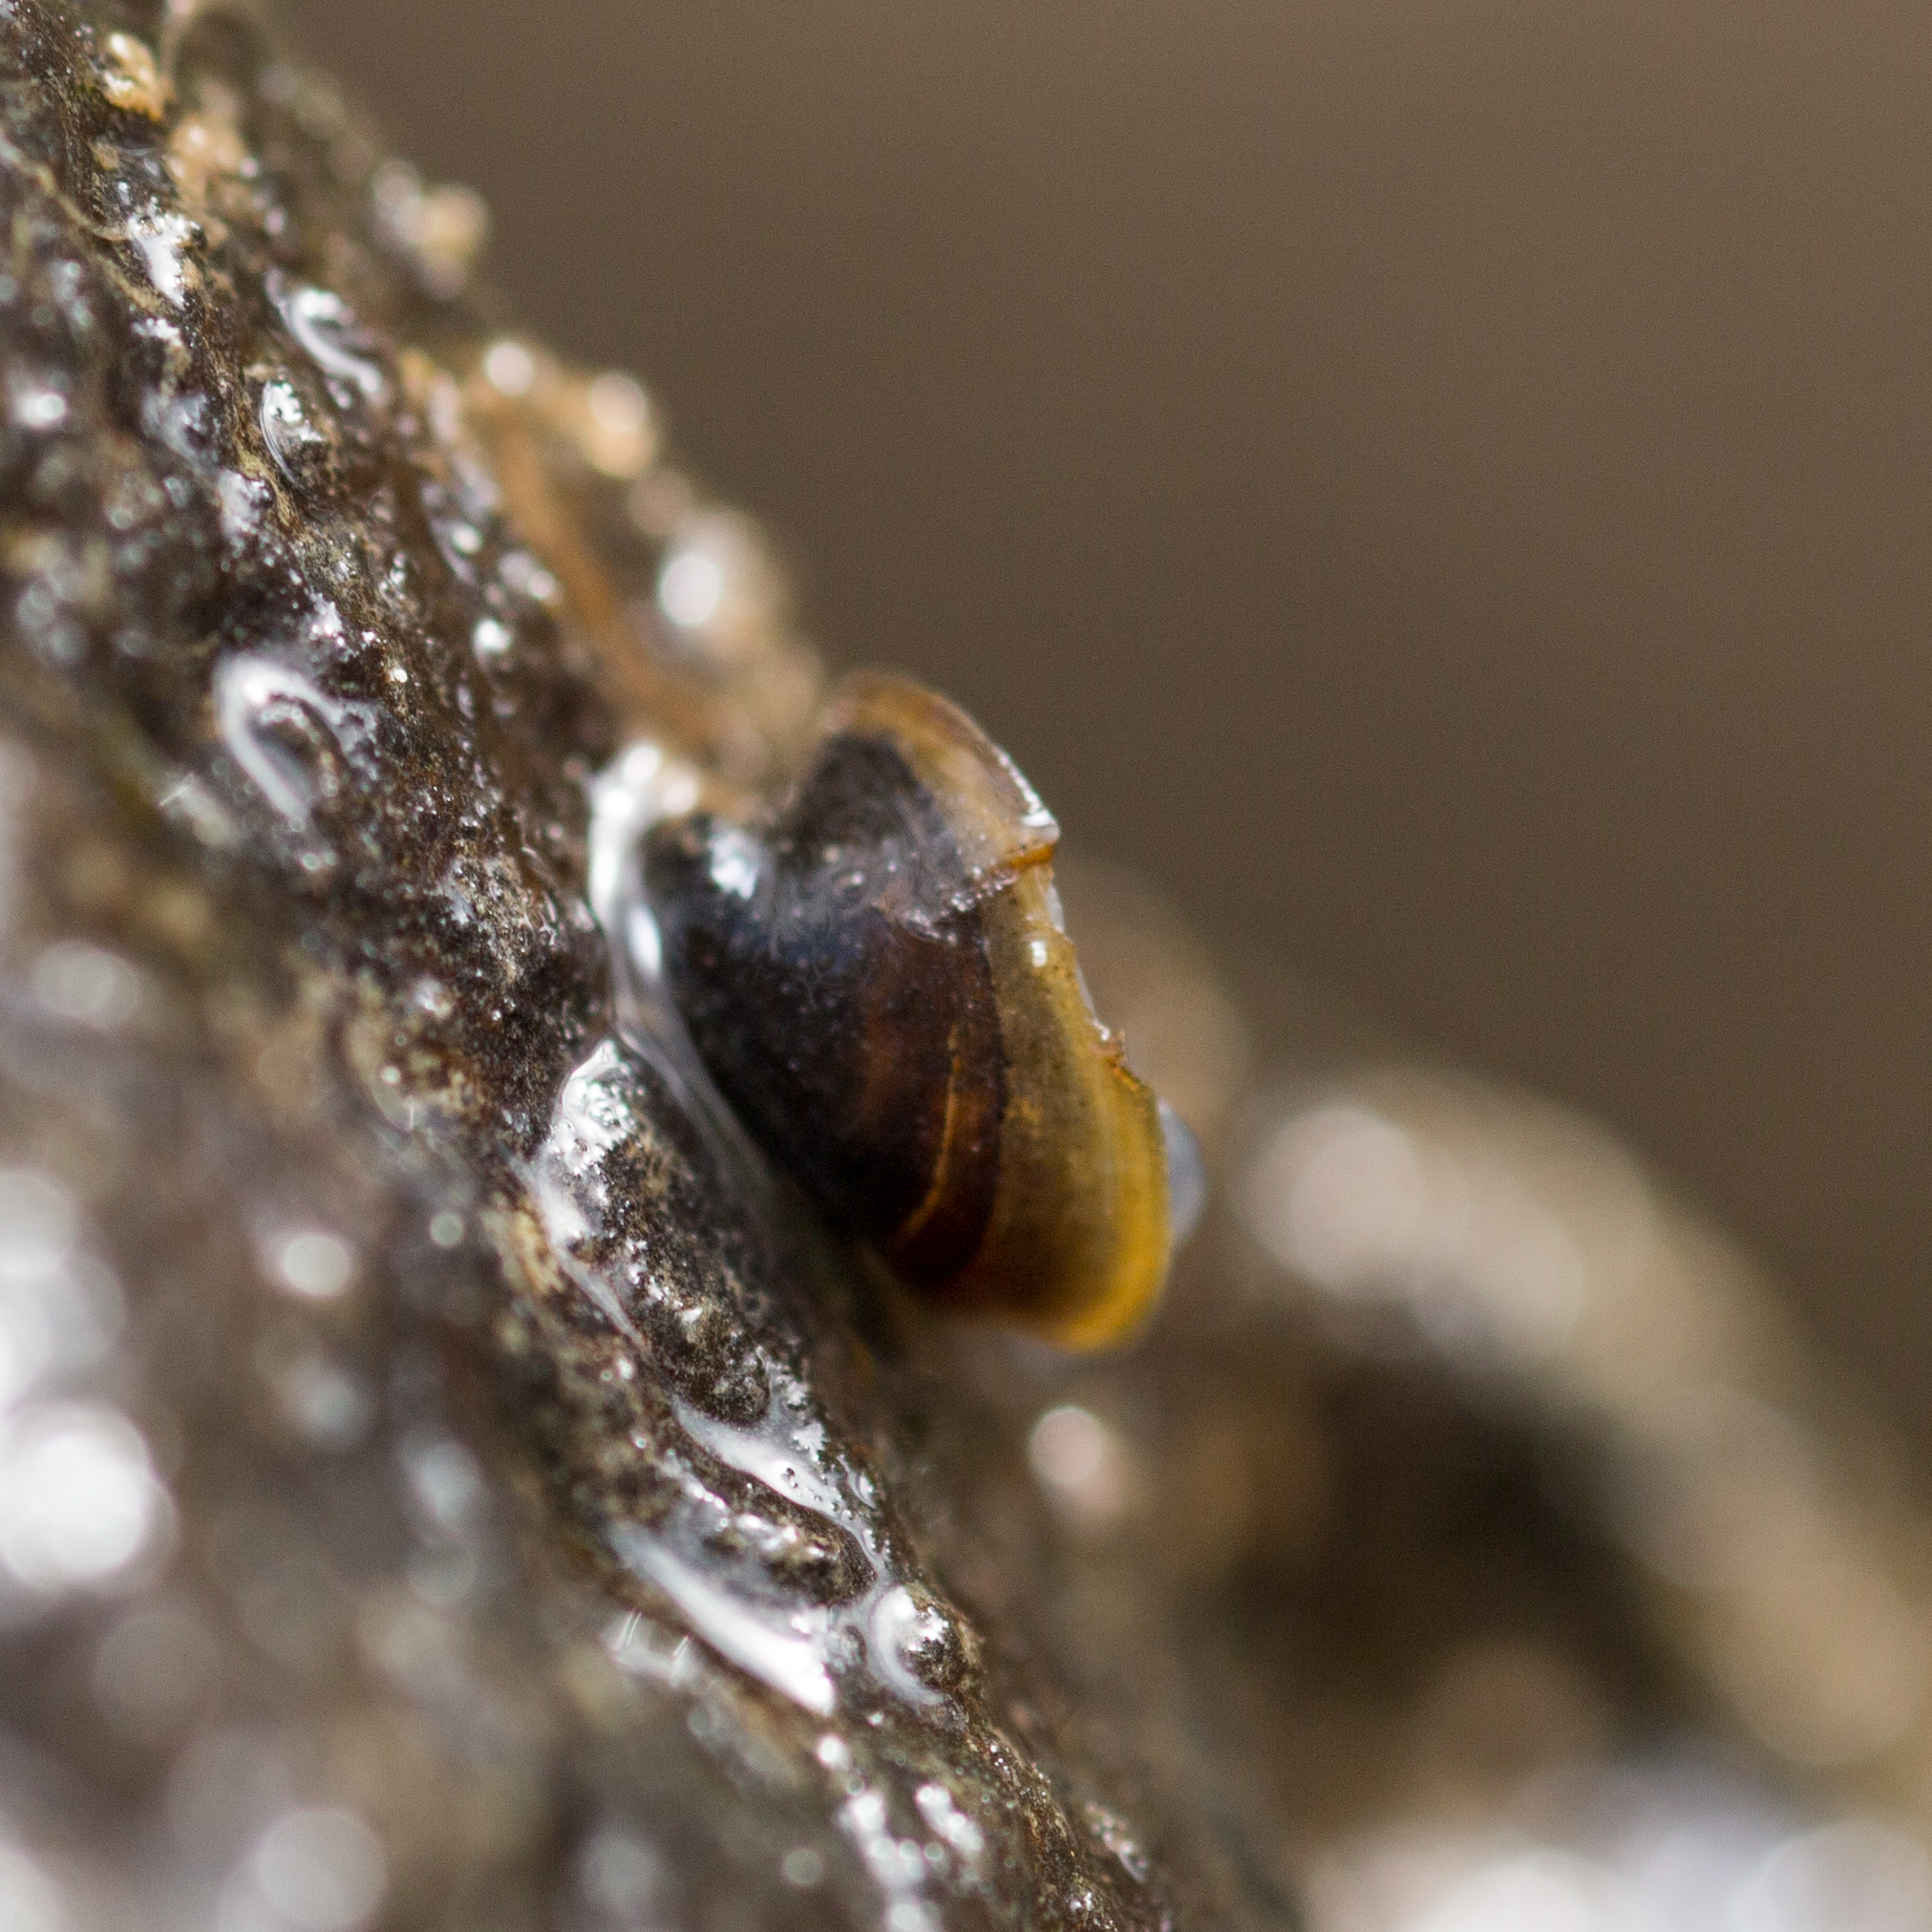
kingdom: Animalia
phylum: Mollusca
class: Gastropoda
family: Planorbidae
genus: Ancylus
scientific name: Ancylus fluviatilis
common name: River limpet
